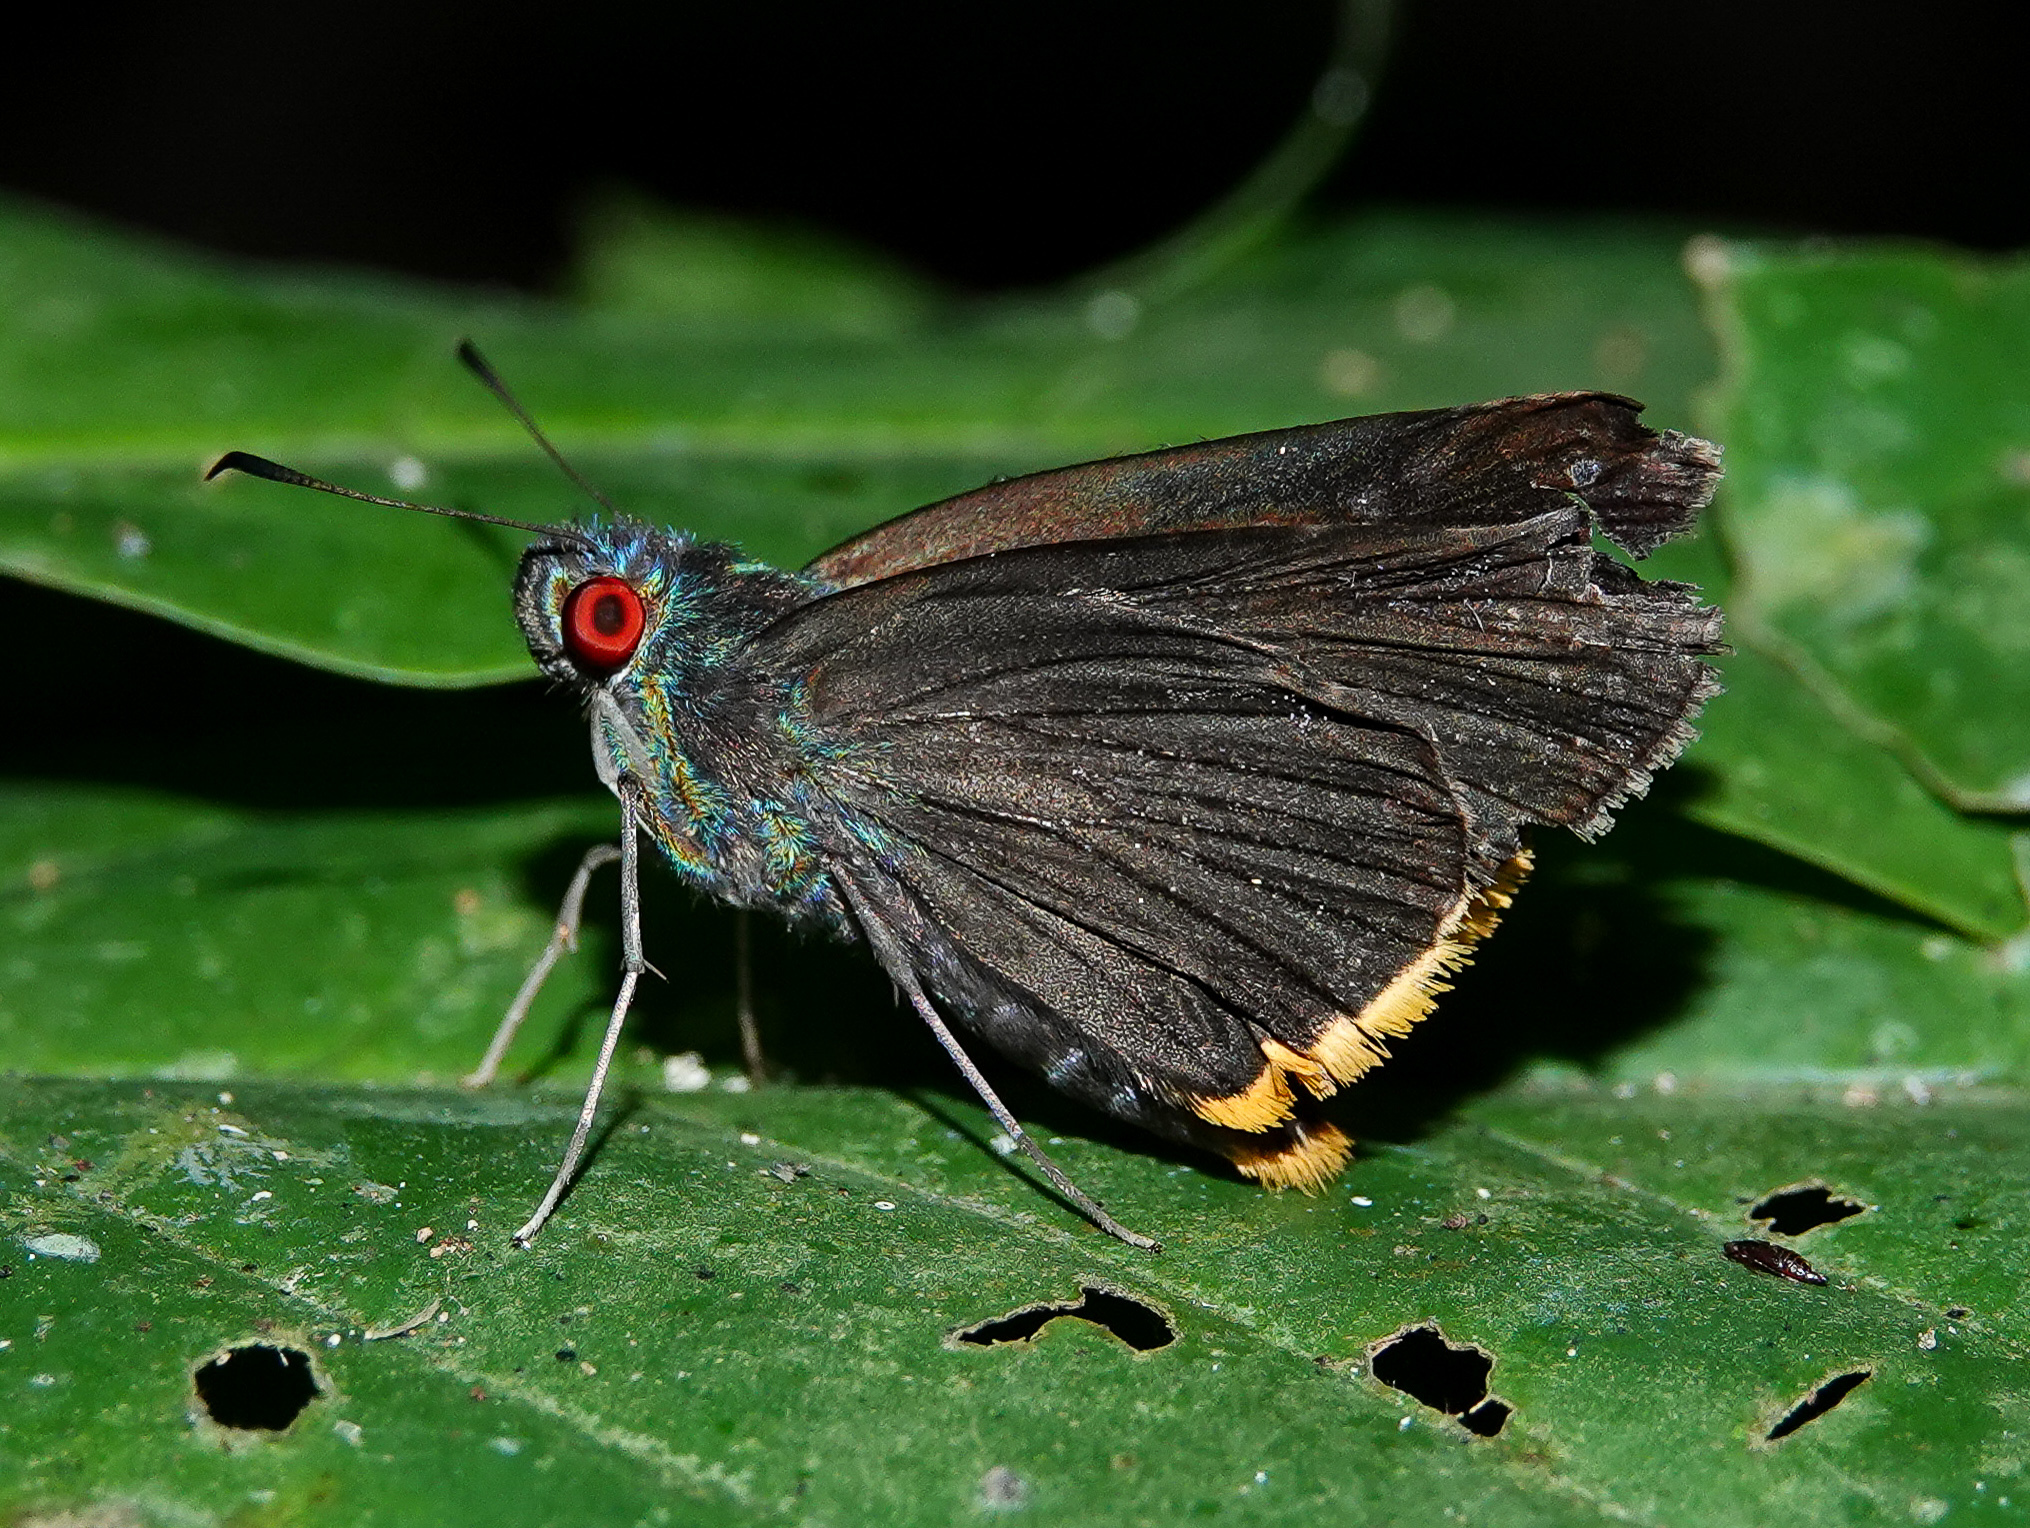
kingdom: Animalia
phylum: Arthropoda
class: Insecta
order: Lepidoptera
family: Hesperiidae
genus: Matapa
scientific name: Matapa sasivarna
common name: Black-veined redeye
